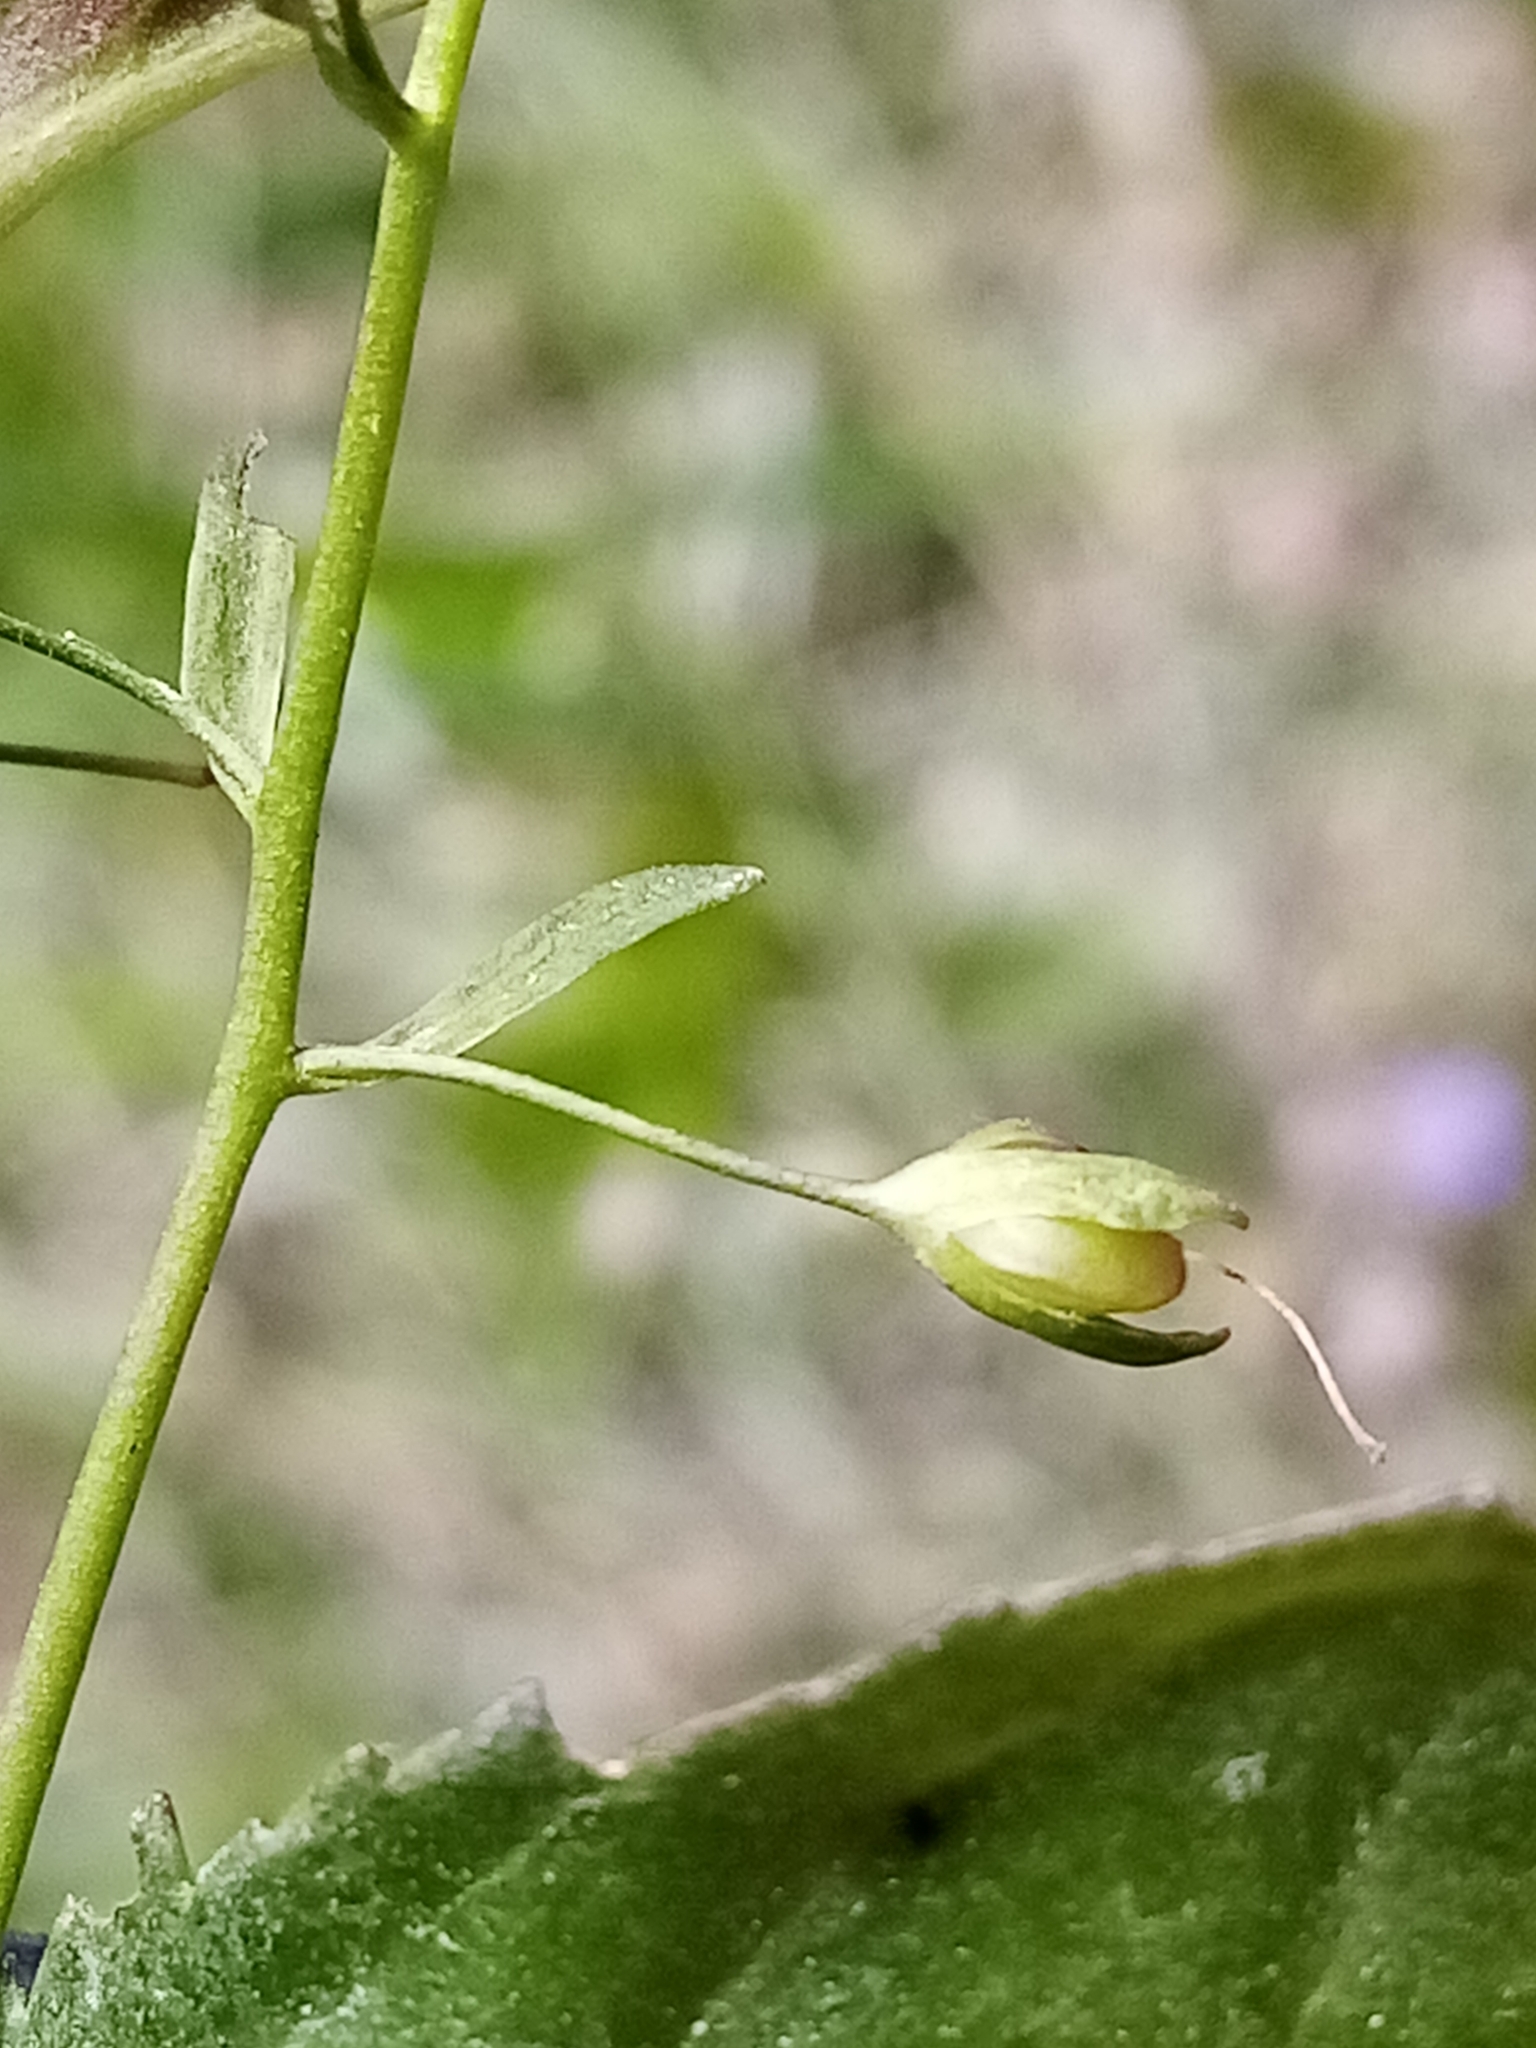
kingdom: Plantae
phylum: Tracheophyta
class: Magnoliopsida
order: Lamiales
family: Plantaginaceae
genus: Veronica
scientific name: Veronica americana
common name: American brooklime
